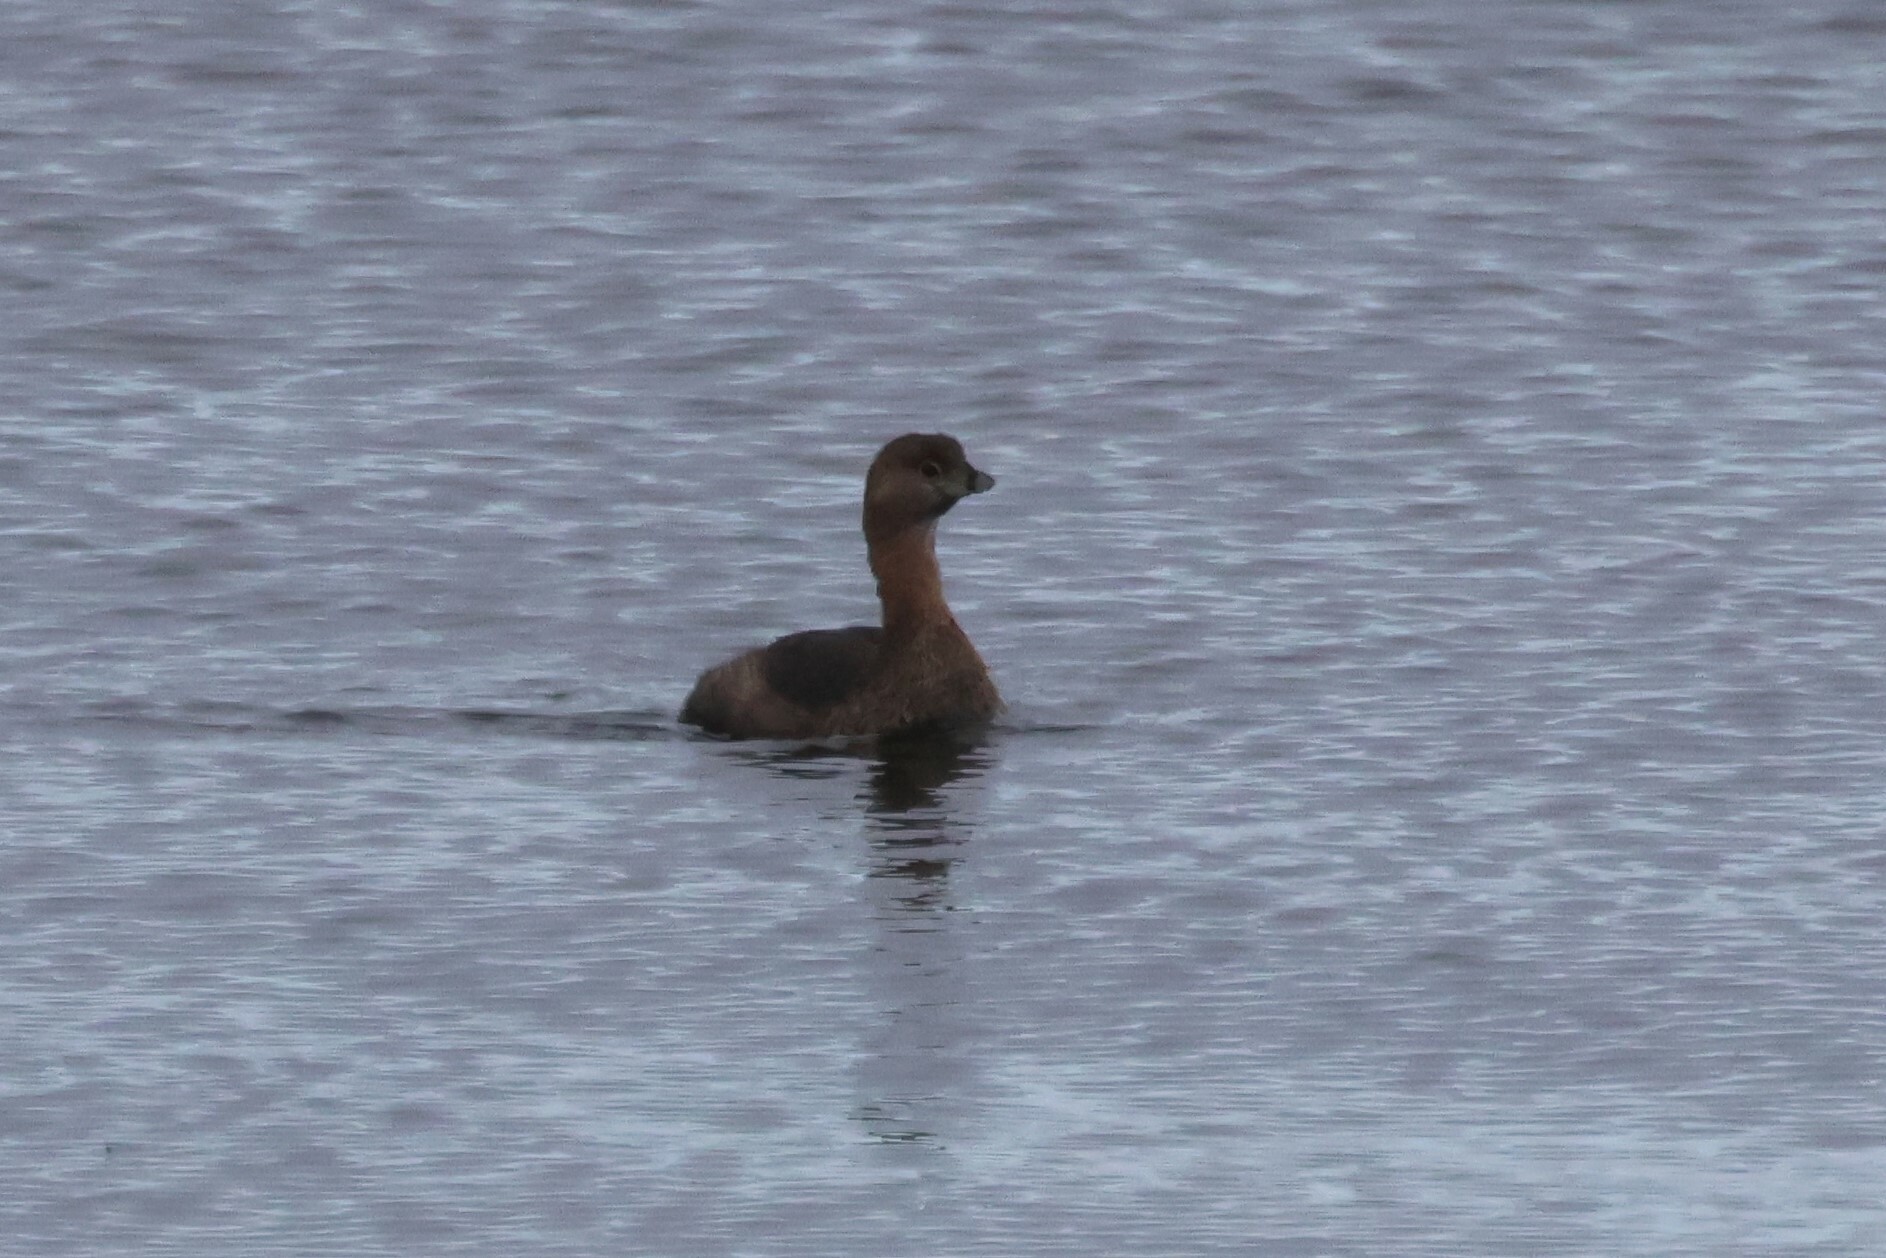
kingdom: Animalia
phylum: Chordata
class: Aves
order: Podicipediformes
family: Podicipedidae
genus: Podilymbus
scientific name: Podilymbus podiceps
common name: Pied-billed grebe
